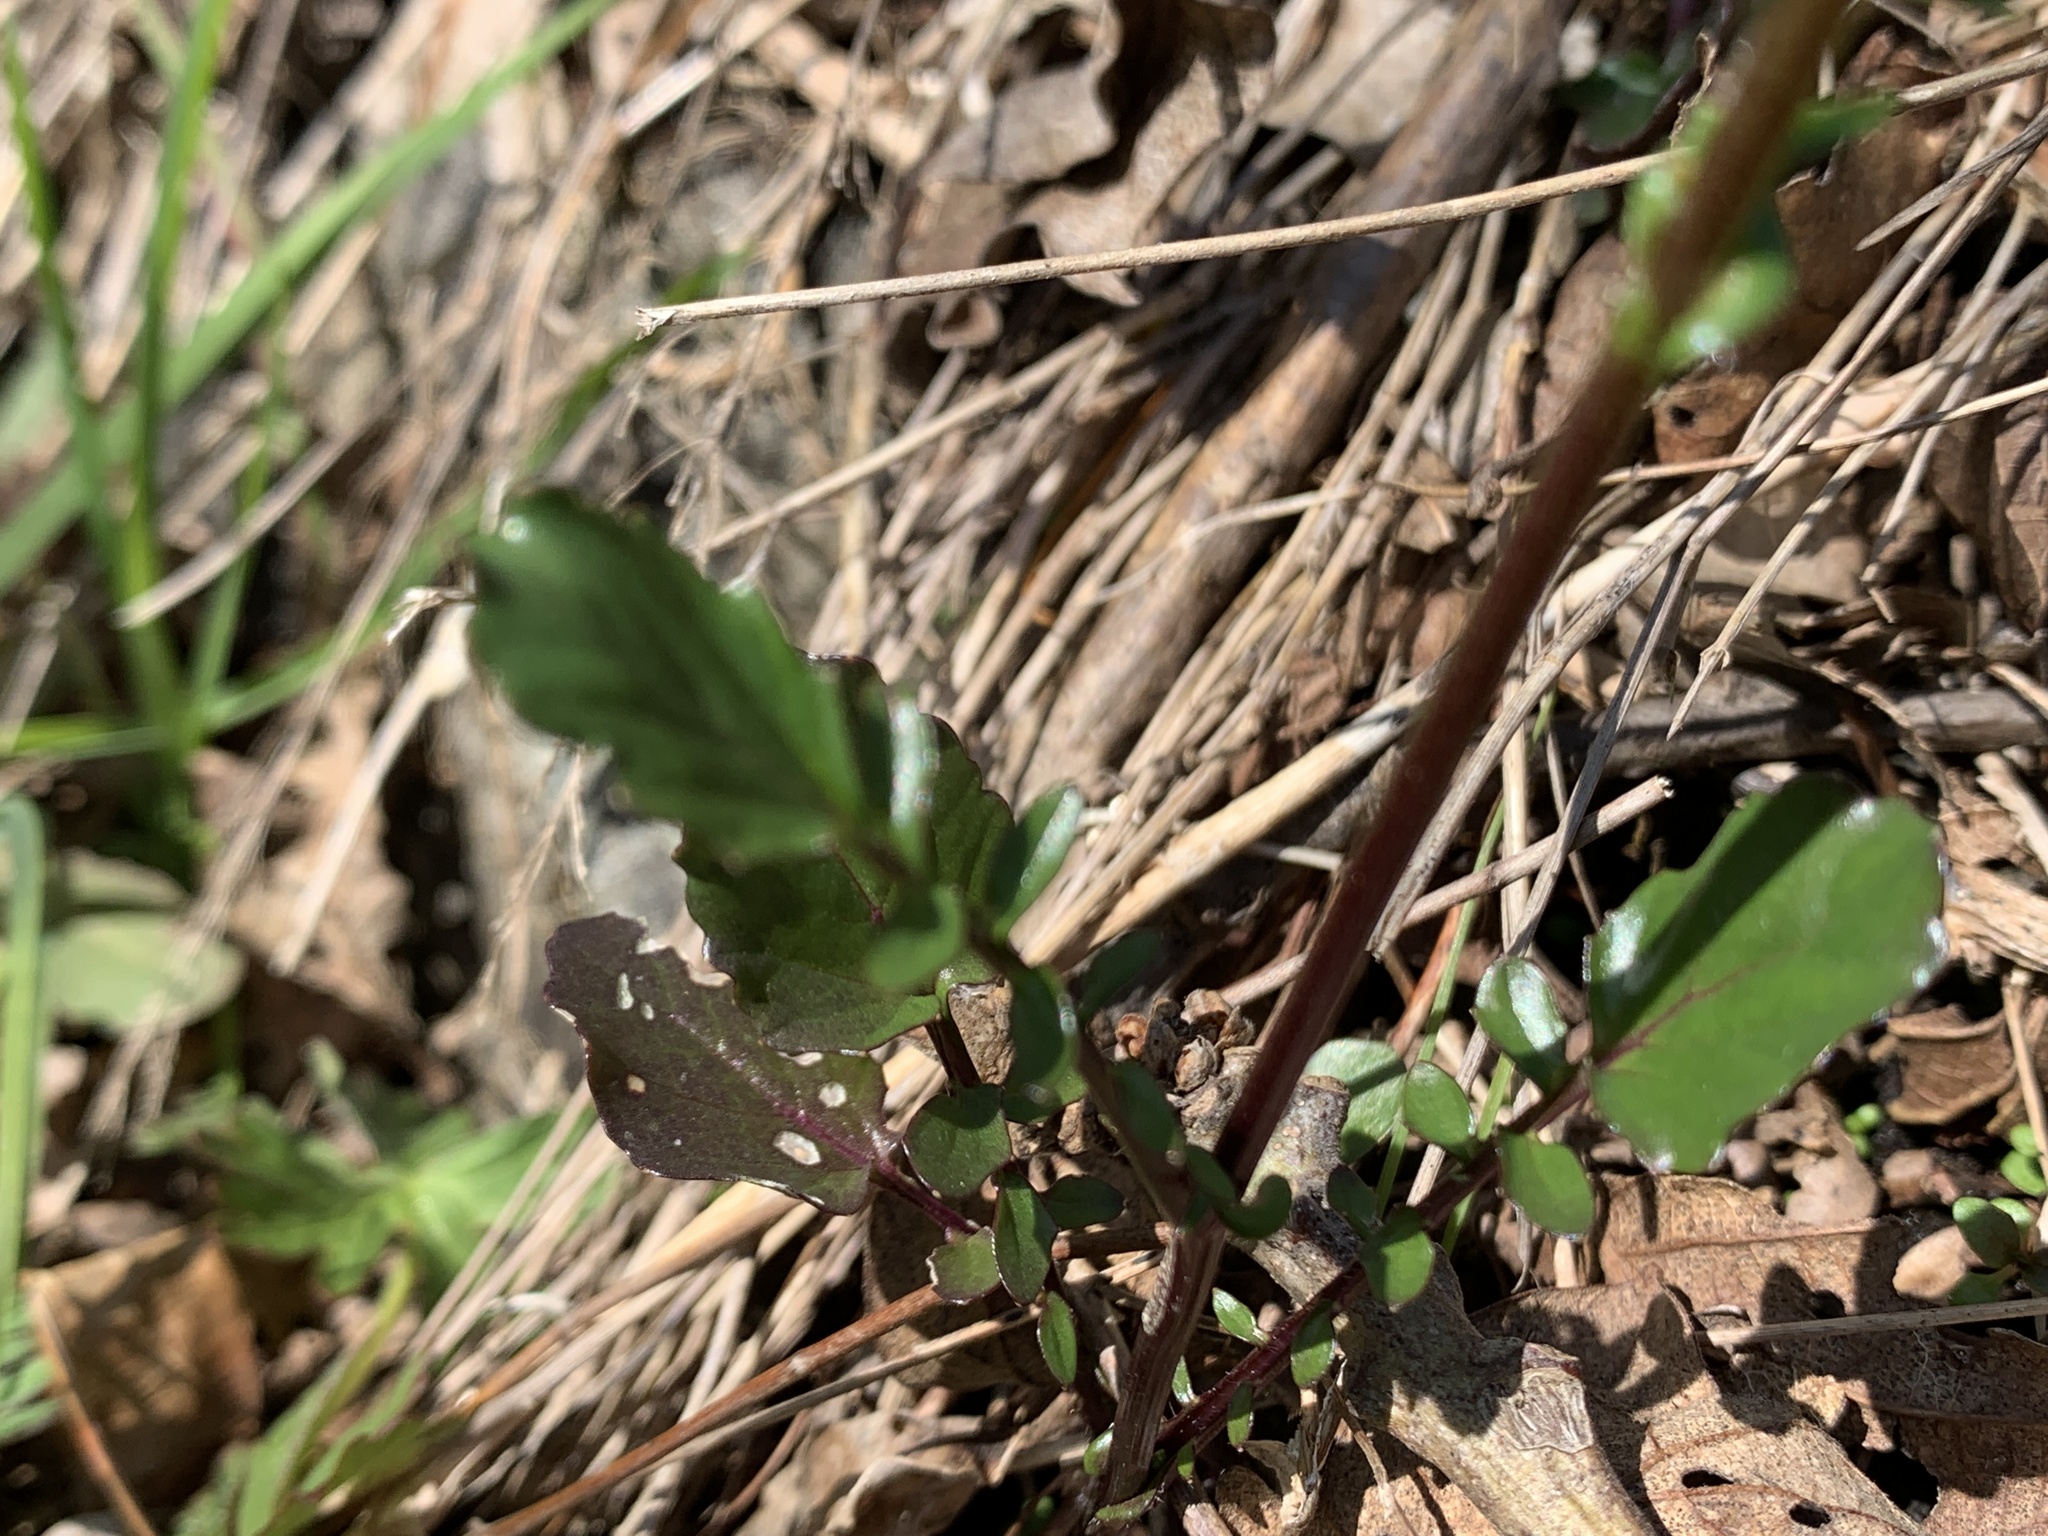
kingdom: Plantae
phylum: Tracheophyta
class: Magnoliopsida
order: Brassicales
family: Brassicaceae
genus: Barbarea
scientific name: Barbarea orthoceras
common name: American wintercress
